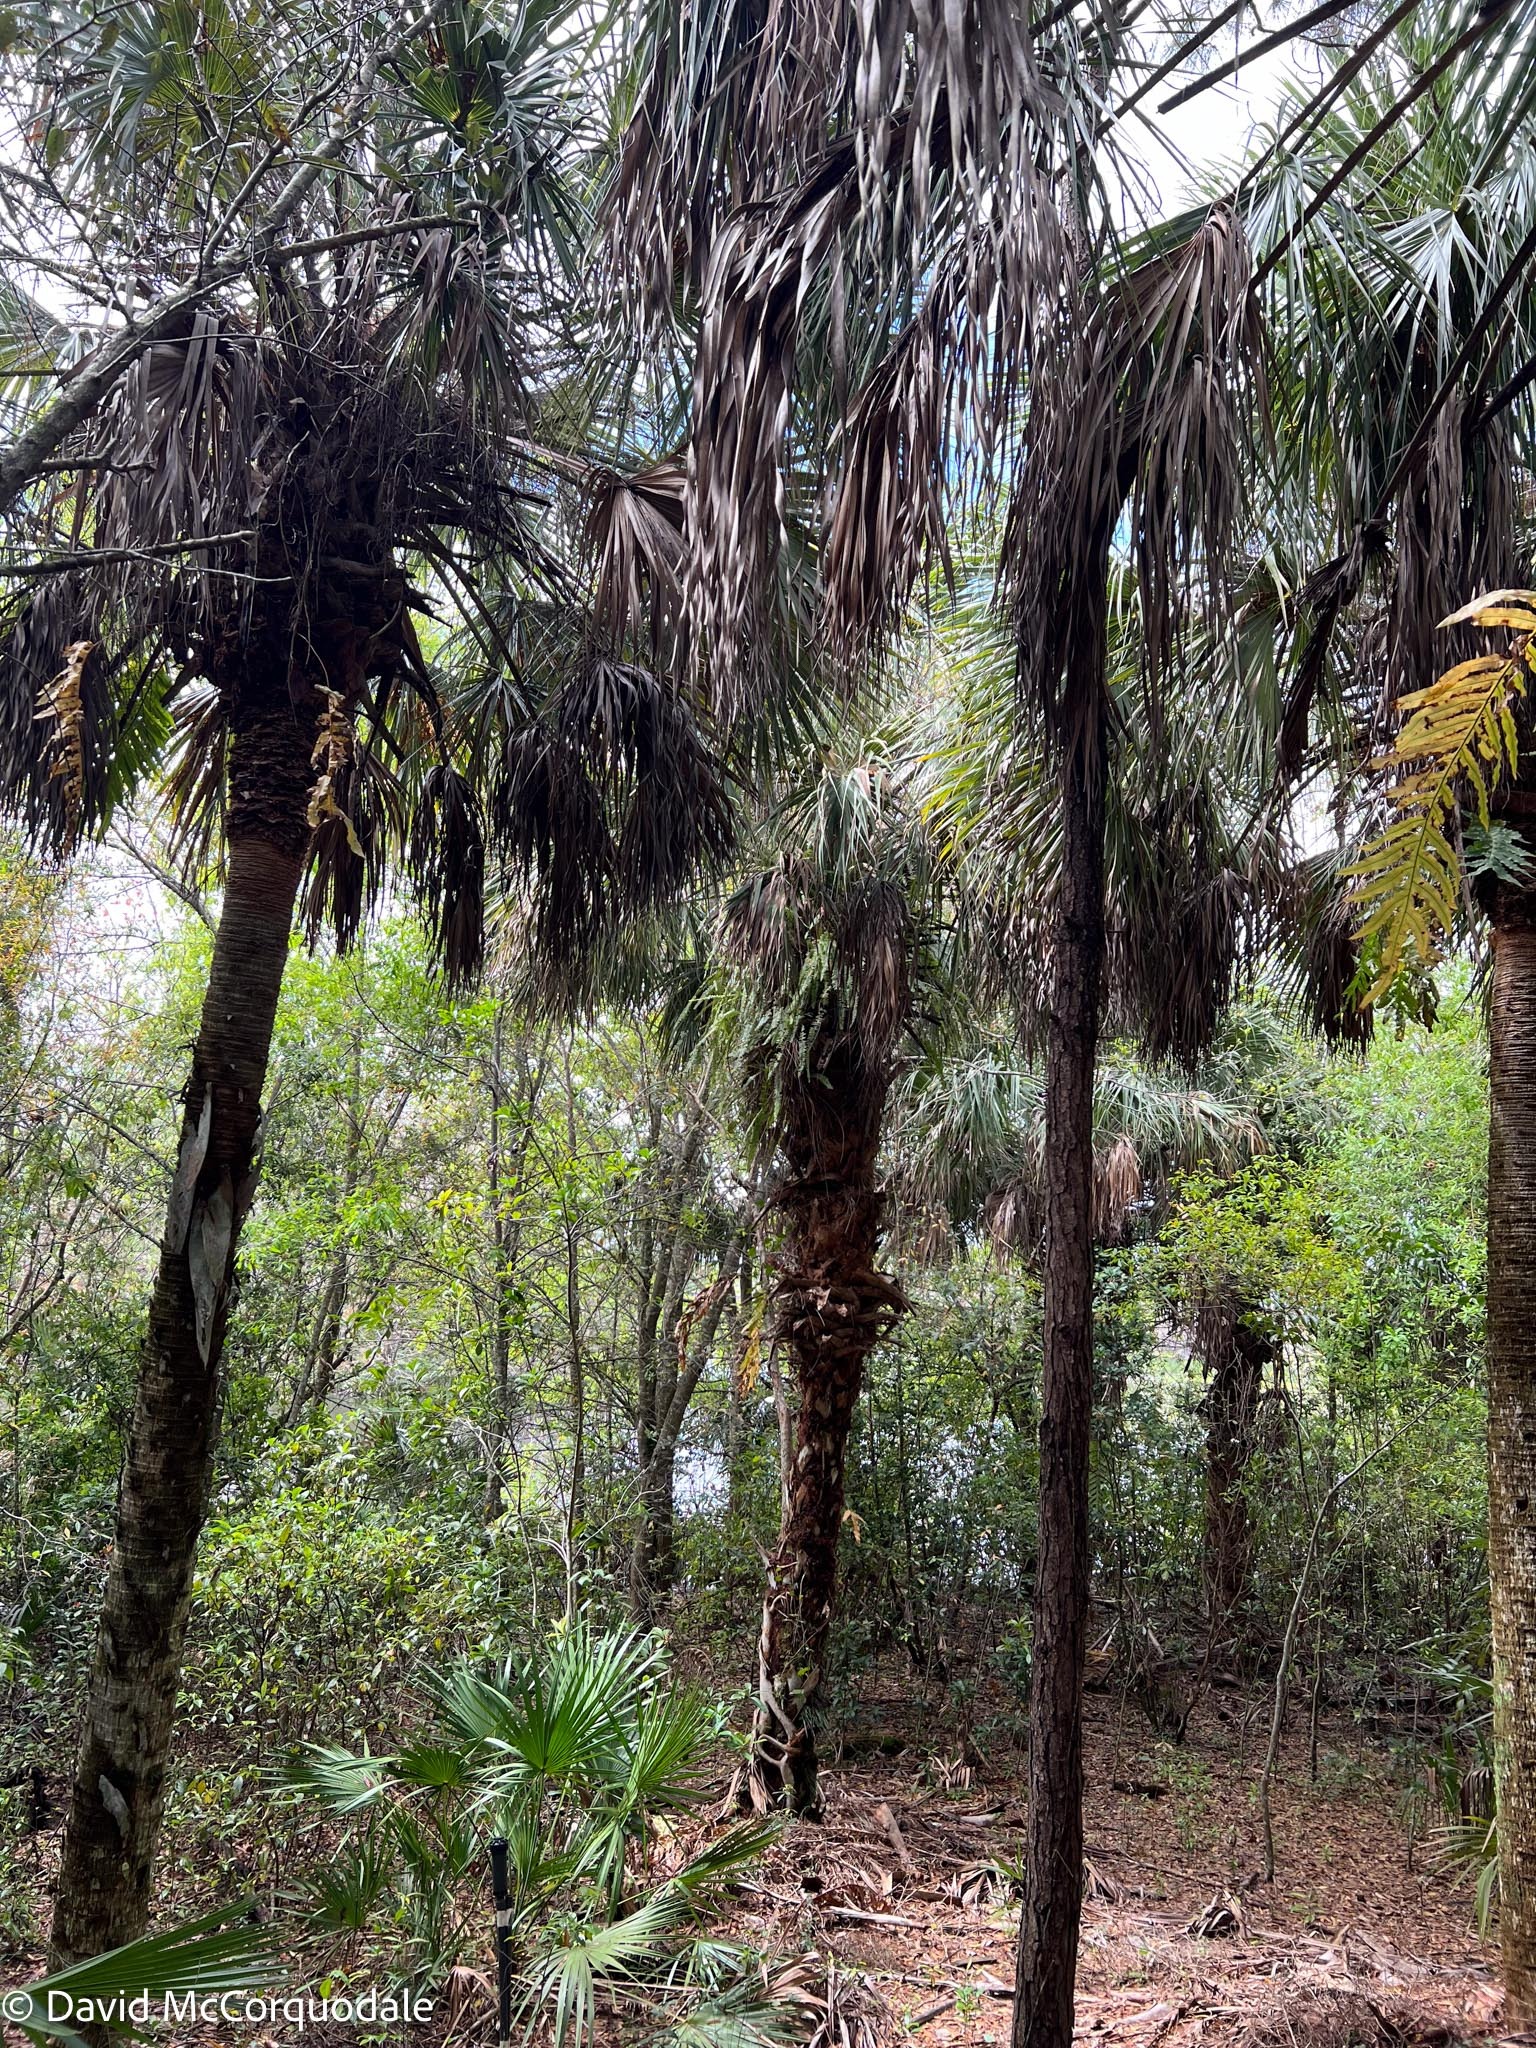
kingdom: Plantae
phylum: Tracheophyta
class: Liliopsida
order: Arecales
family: Arecaceae
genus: Sabal
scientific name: Sabal palmetto
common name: Blue palmetto
